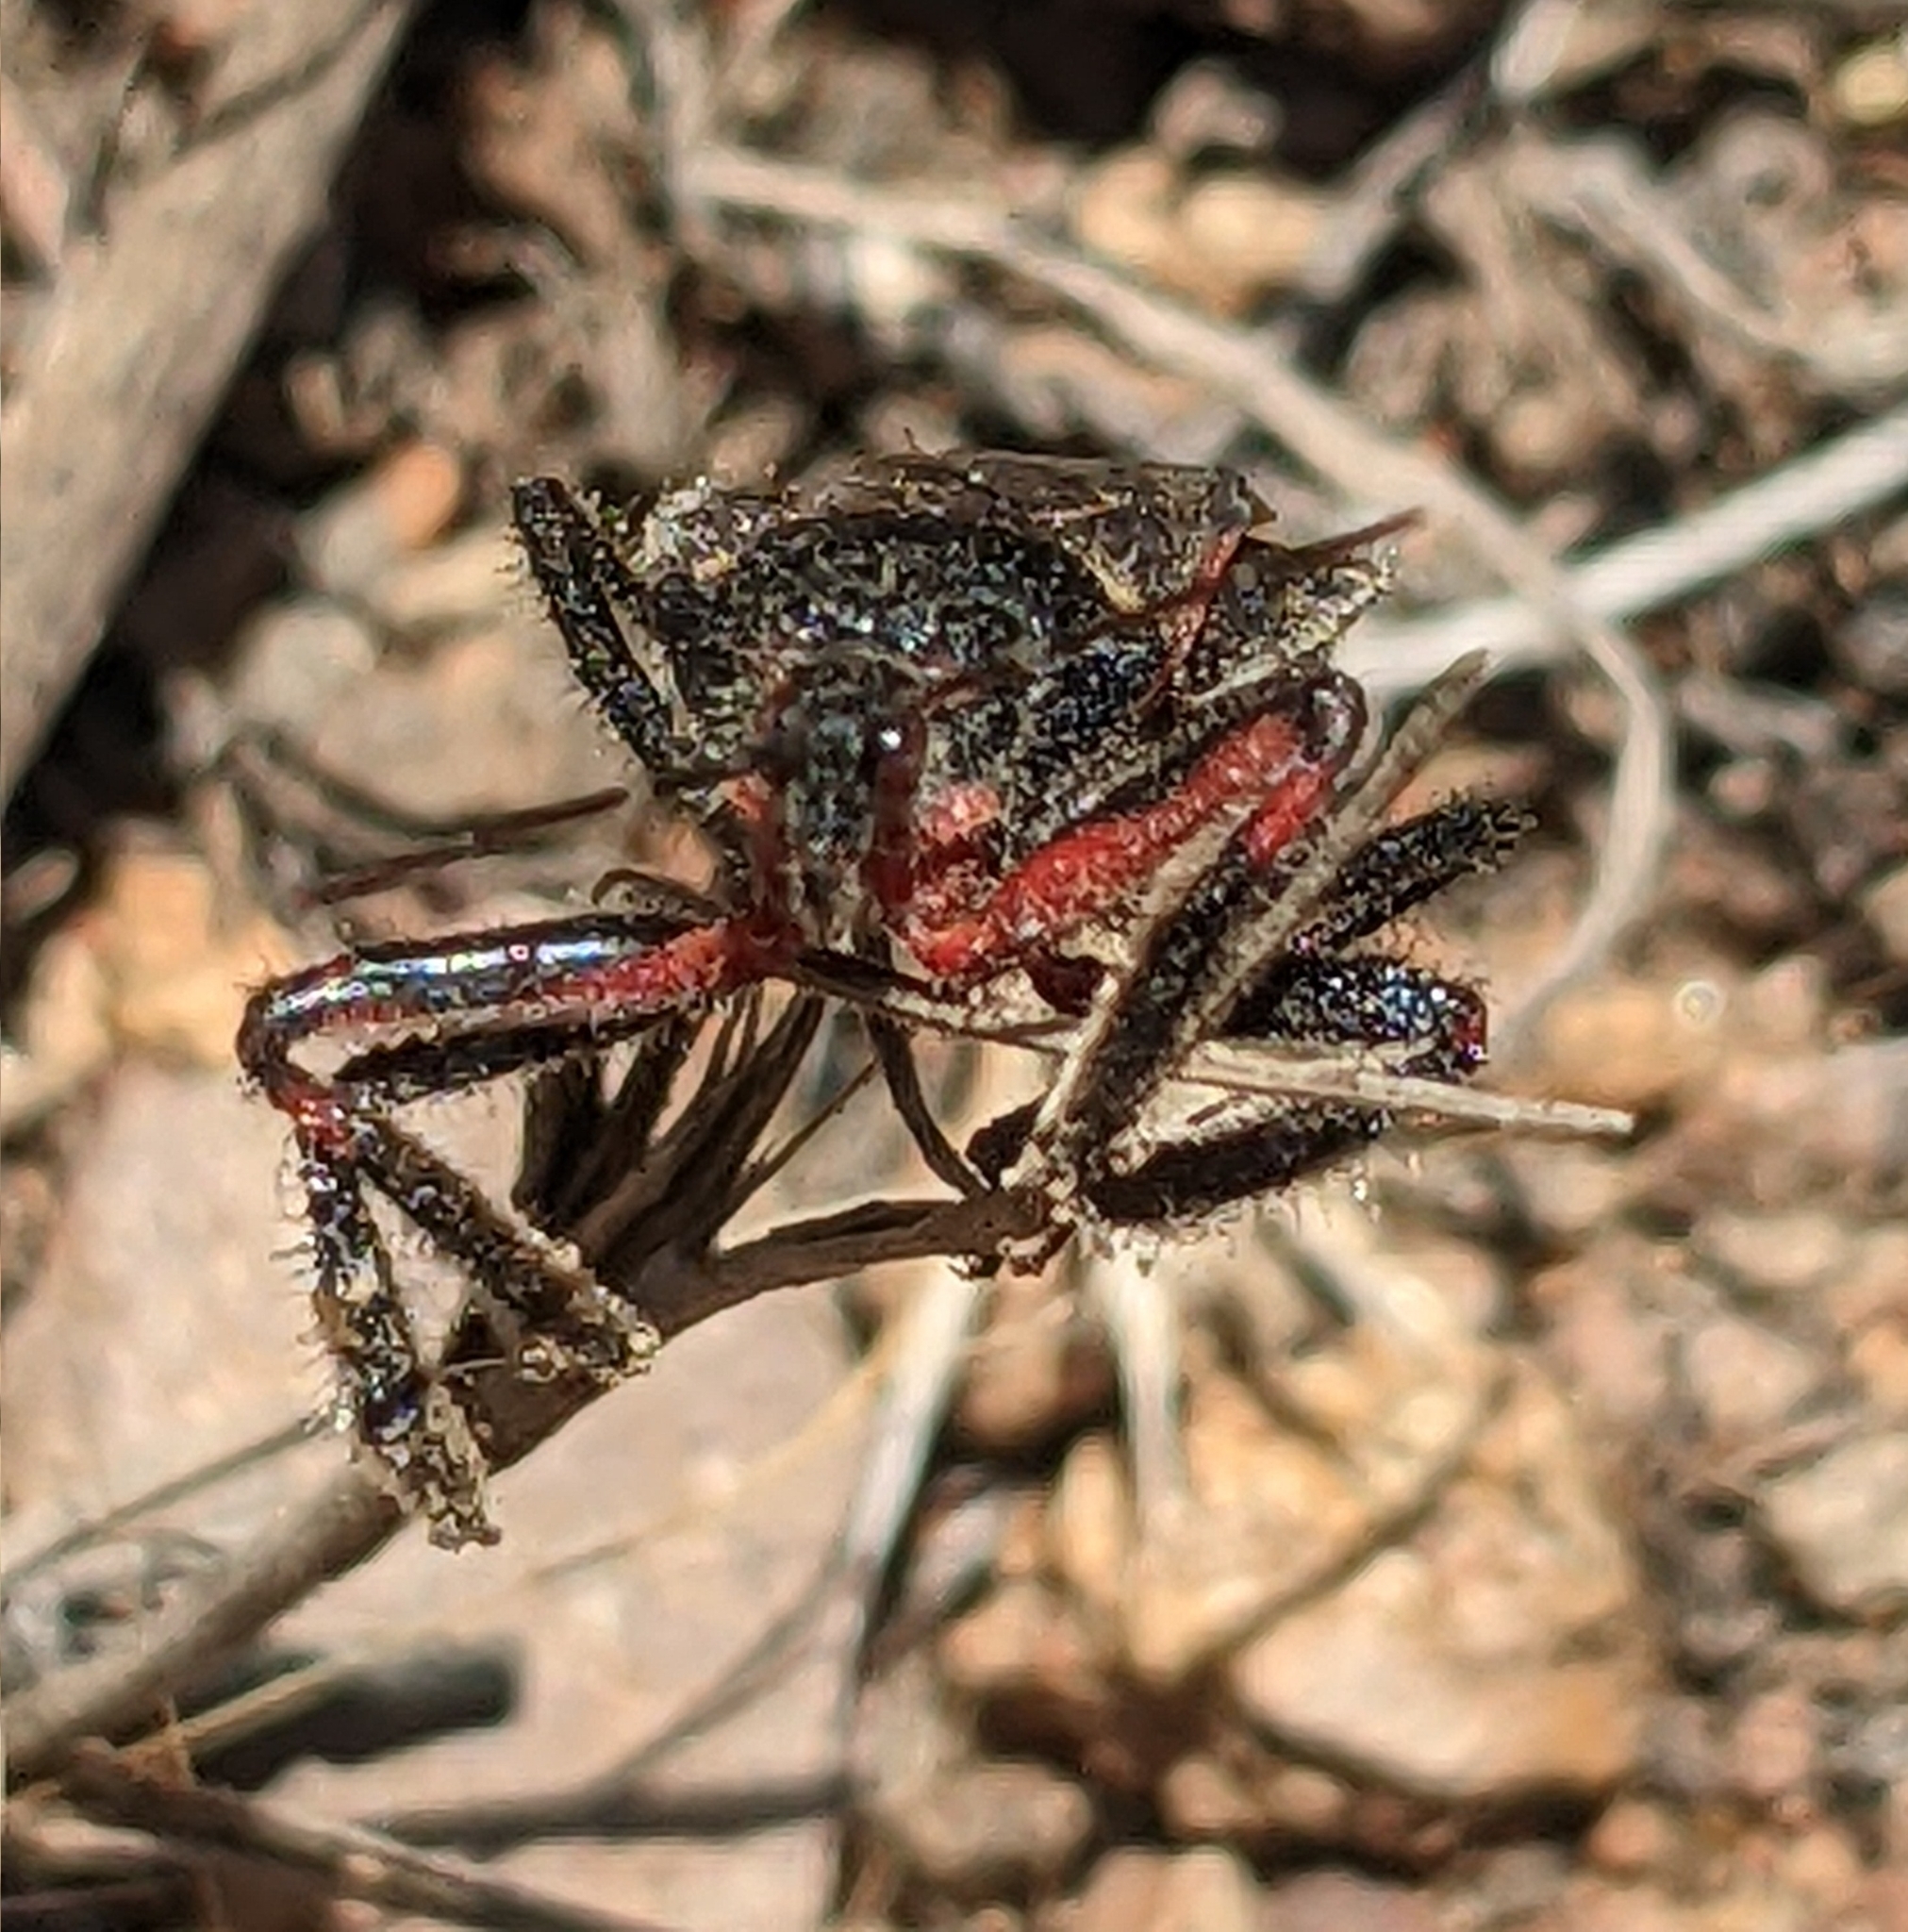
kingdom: Animalia
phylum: Arthropoda
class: Insecta
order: Hemiptera
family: Reduviidae
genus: Apiomerus
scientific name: Apiomerus californicus
